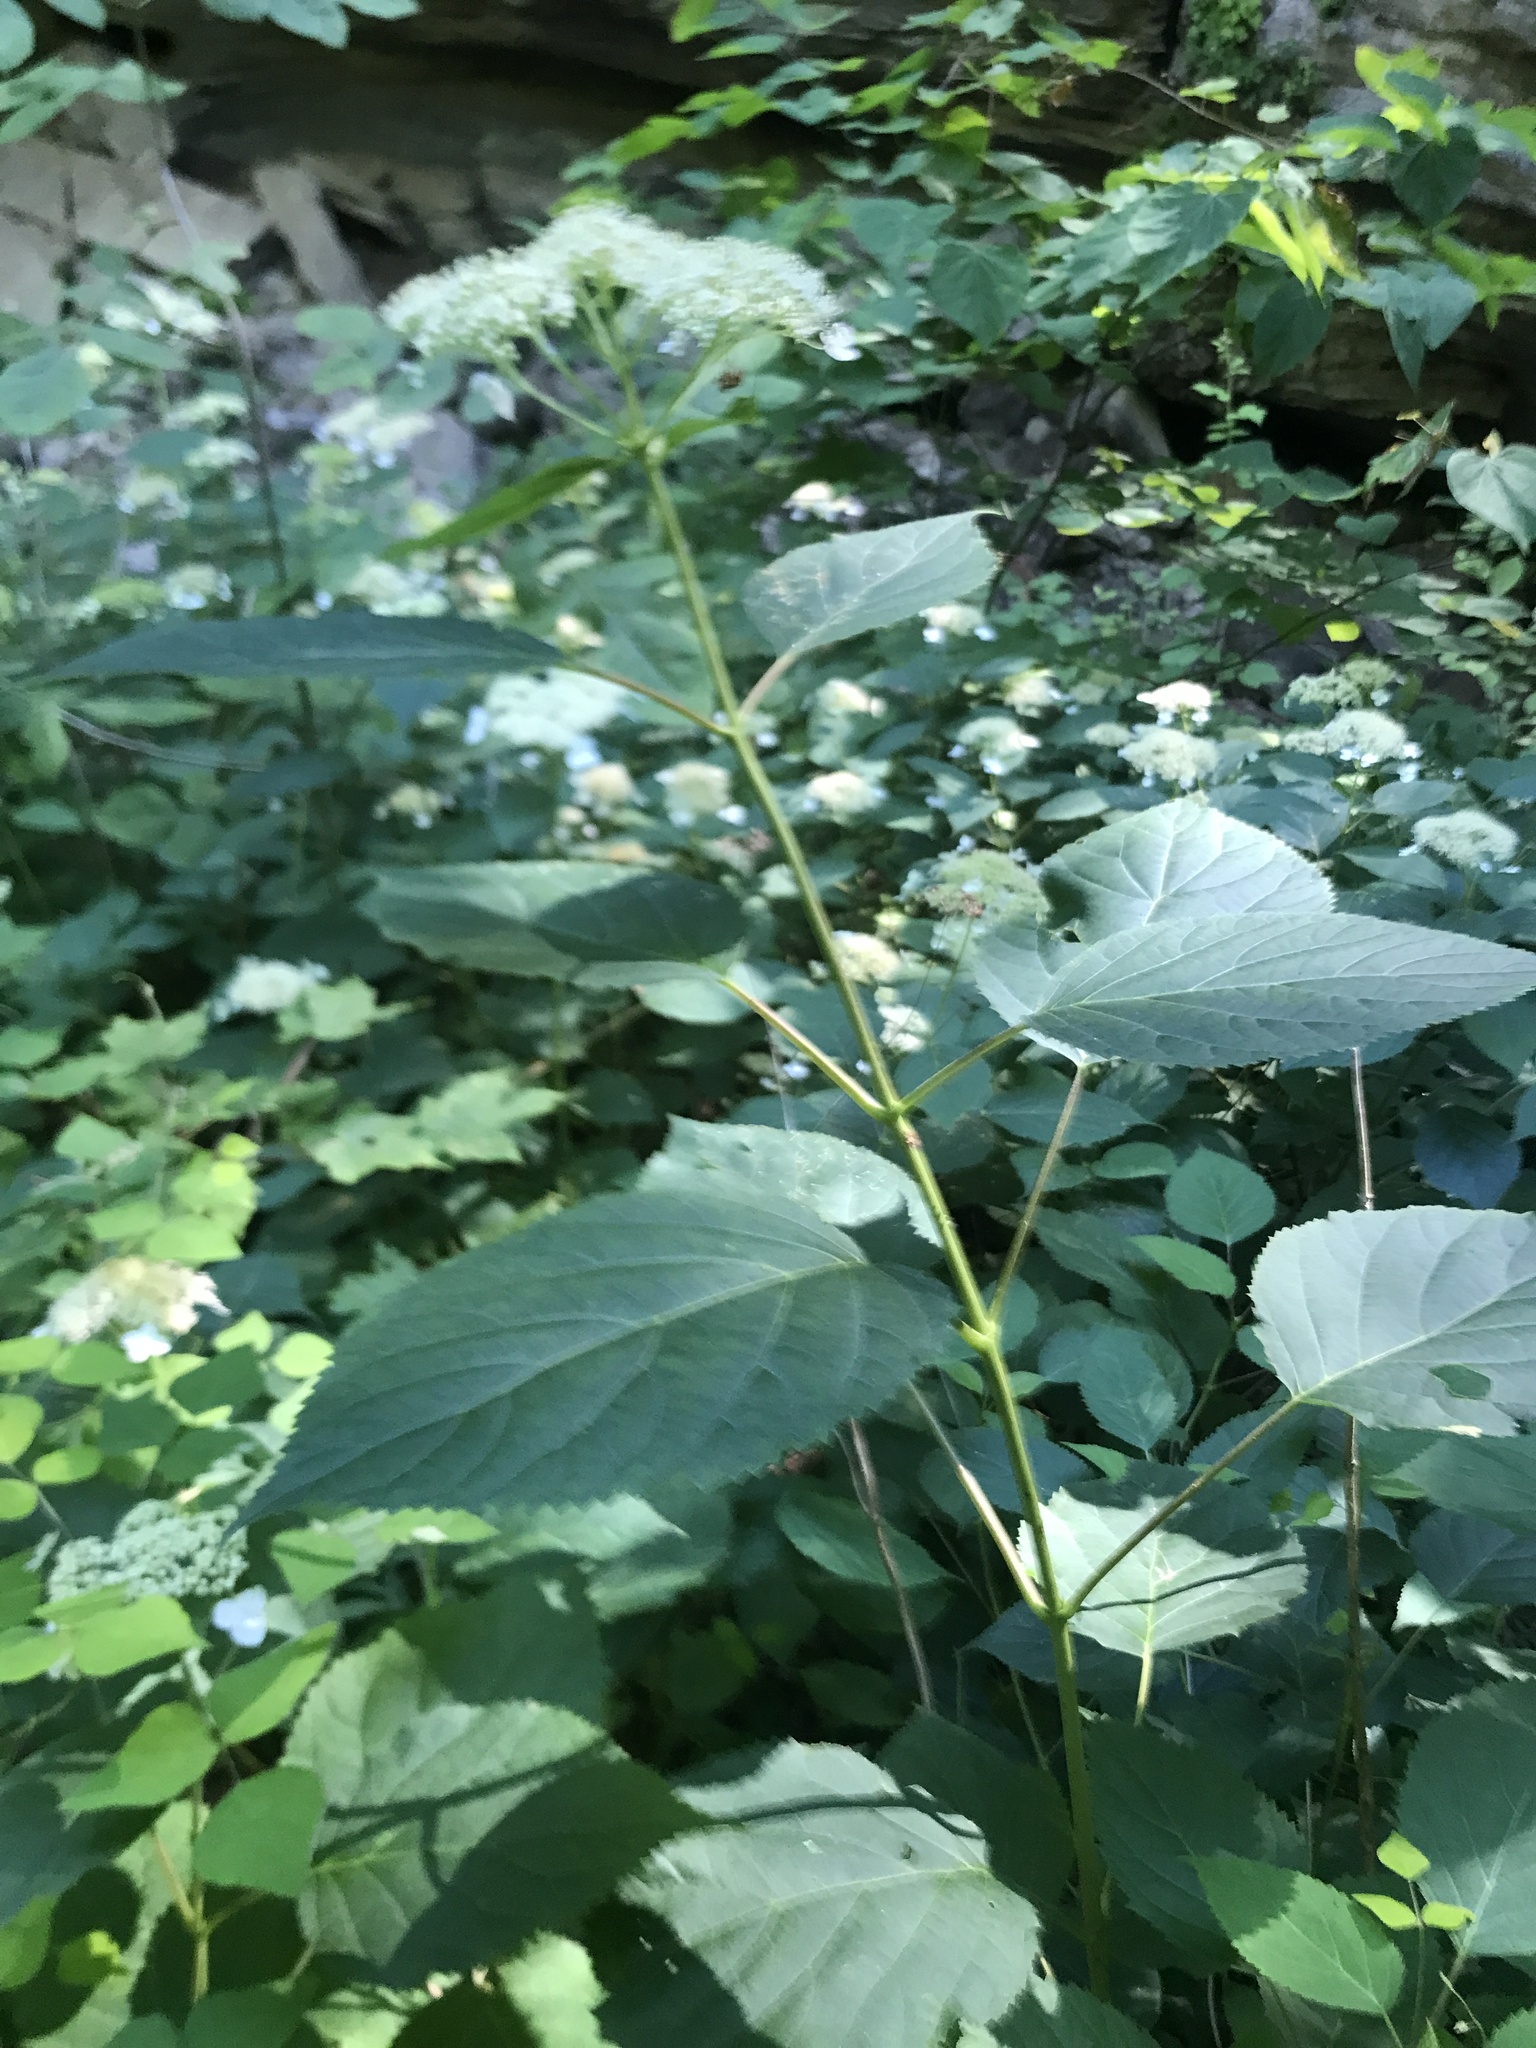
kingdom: Plantae
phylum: Tracheophyta
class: Magnoliopsida
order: Cornales
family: Hydrangeaceae
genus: Hydrangea
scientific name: Hydrangea arborescens
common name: Sevenbark
